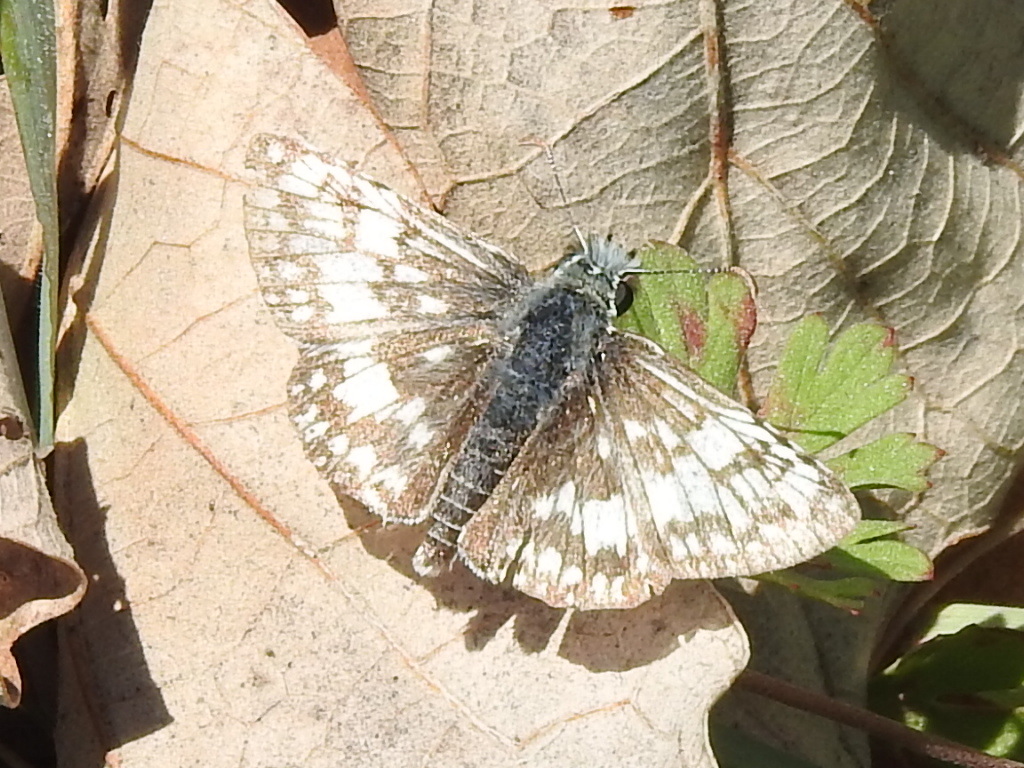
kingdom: Animalia
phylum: Arthropoda
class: Insecta
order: Lepidoptera
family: Hesperiidae
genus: Burnsius
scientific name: Burnsius
